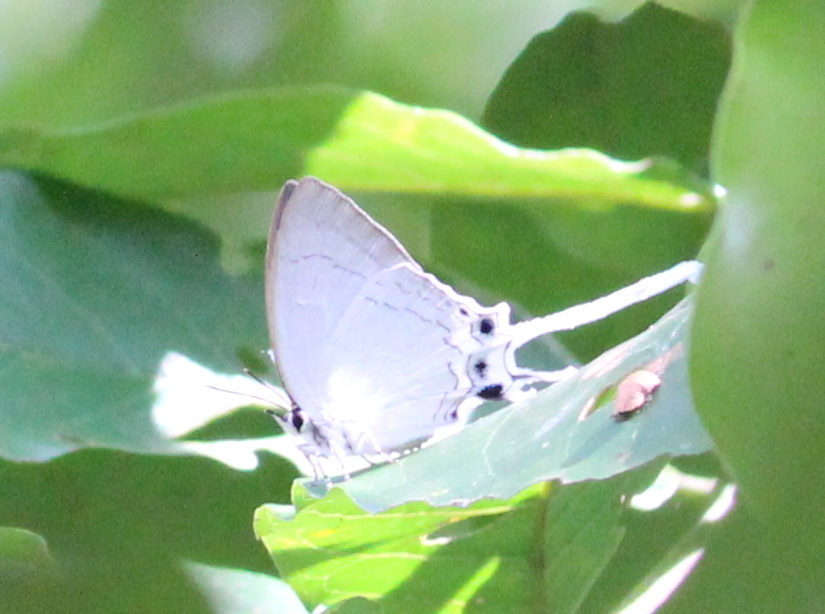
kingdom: Animalia
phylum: Arthropoda
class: Insecta
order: Lepidoptera
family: Lycaenidae
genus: Cheritra
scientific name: Cheritra freja
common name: Common imperial
